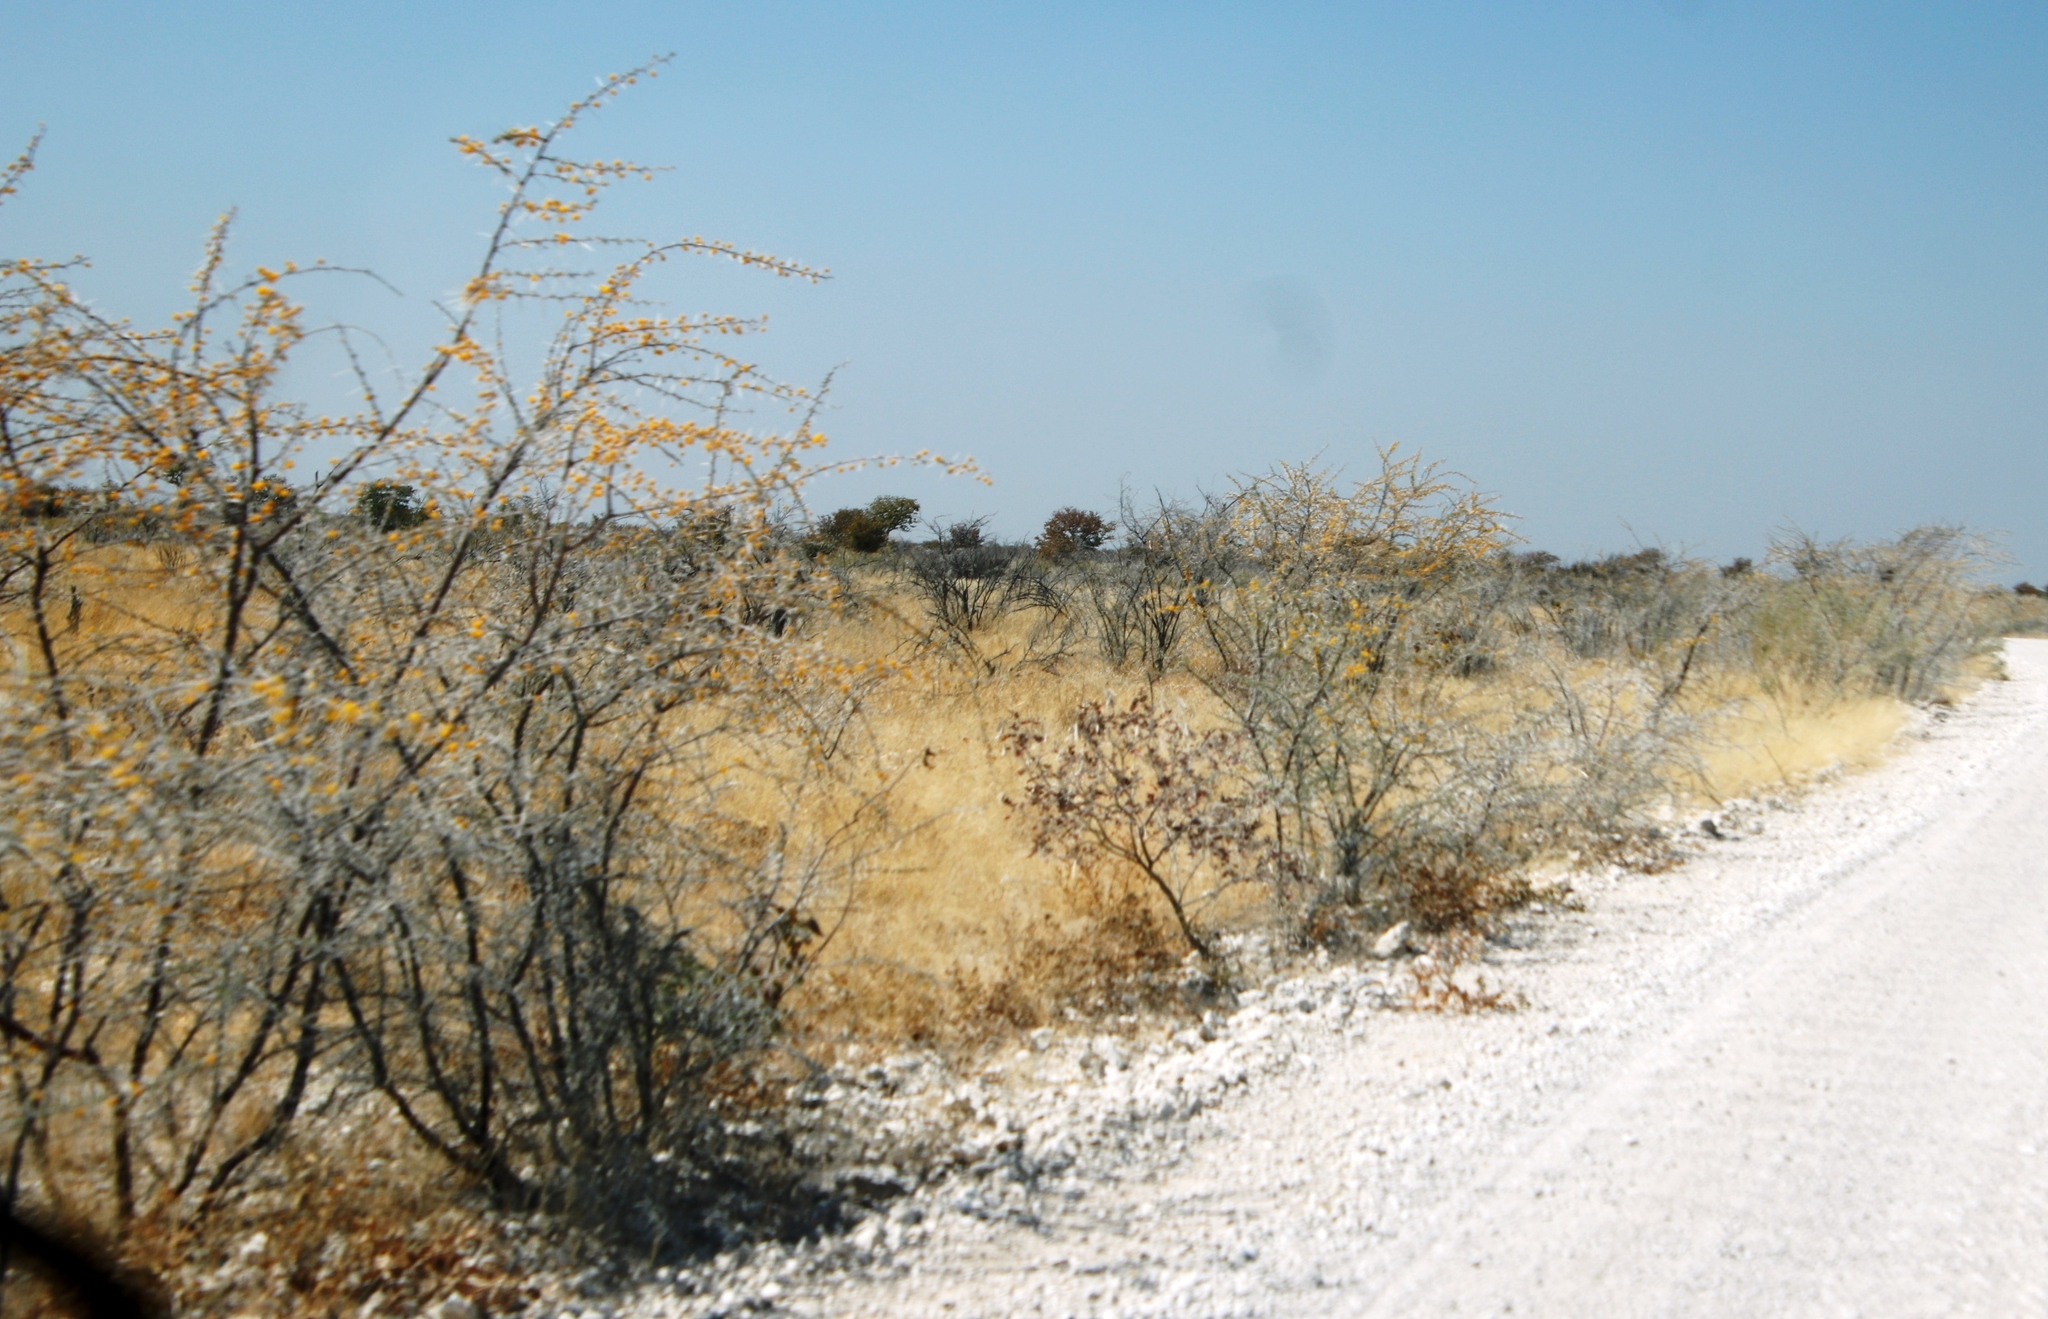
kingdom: Plantae
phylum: Tracheophyta
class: Magnoliopsida
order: Fabales
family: Fabaceae
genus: Vachellia
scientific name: Vachellia nebrownii
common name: Water acacia
